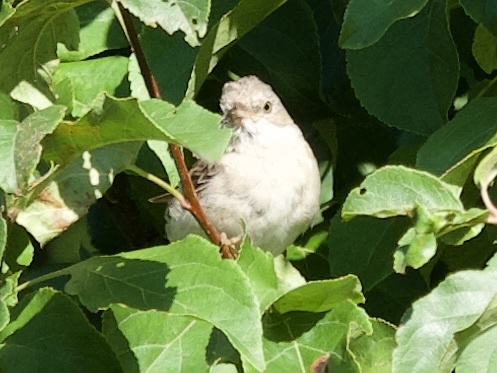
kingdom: Animalia
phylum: Chordata
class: Aves
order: Passeriformes
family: Sylviidae
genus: Sylvia
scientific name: Sylvia communis
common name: Common whitethroat
